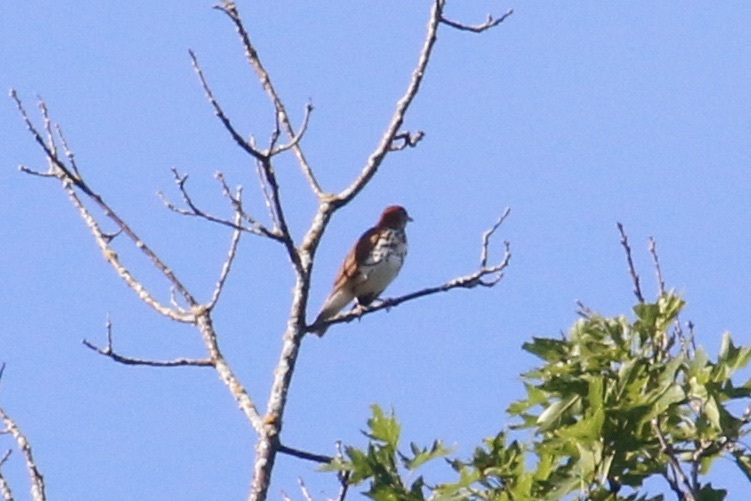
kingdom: Animalia
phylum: Chordata
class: Aves
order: Passeriformes
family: Turdidae
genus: Hylocichla
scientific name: Hylocichla mustelina
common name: Wood thrush
